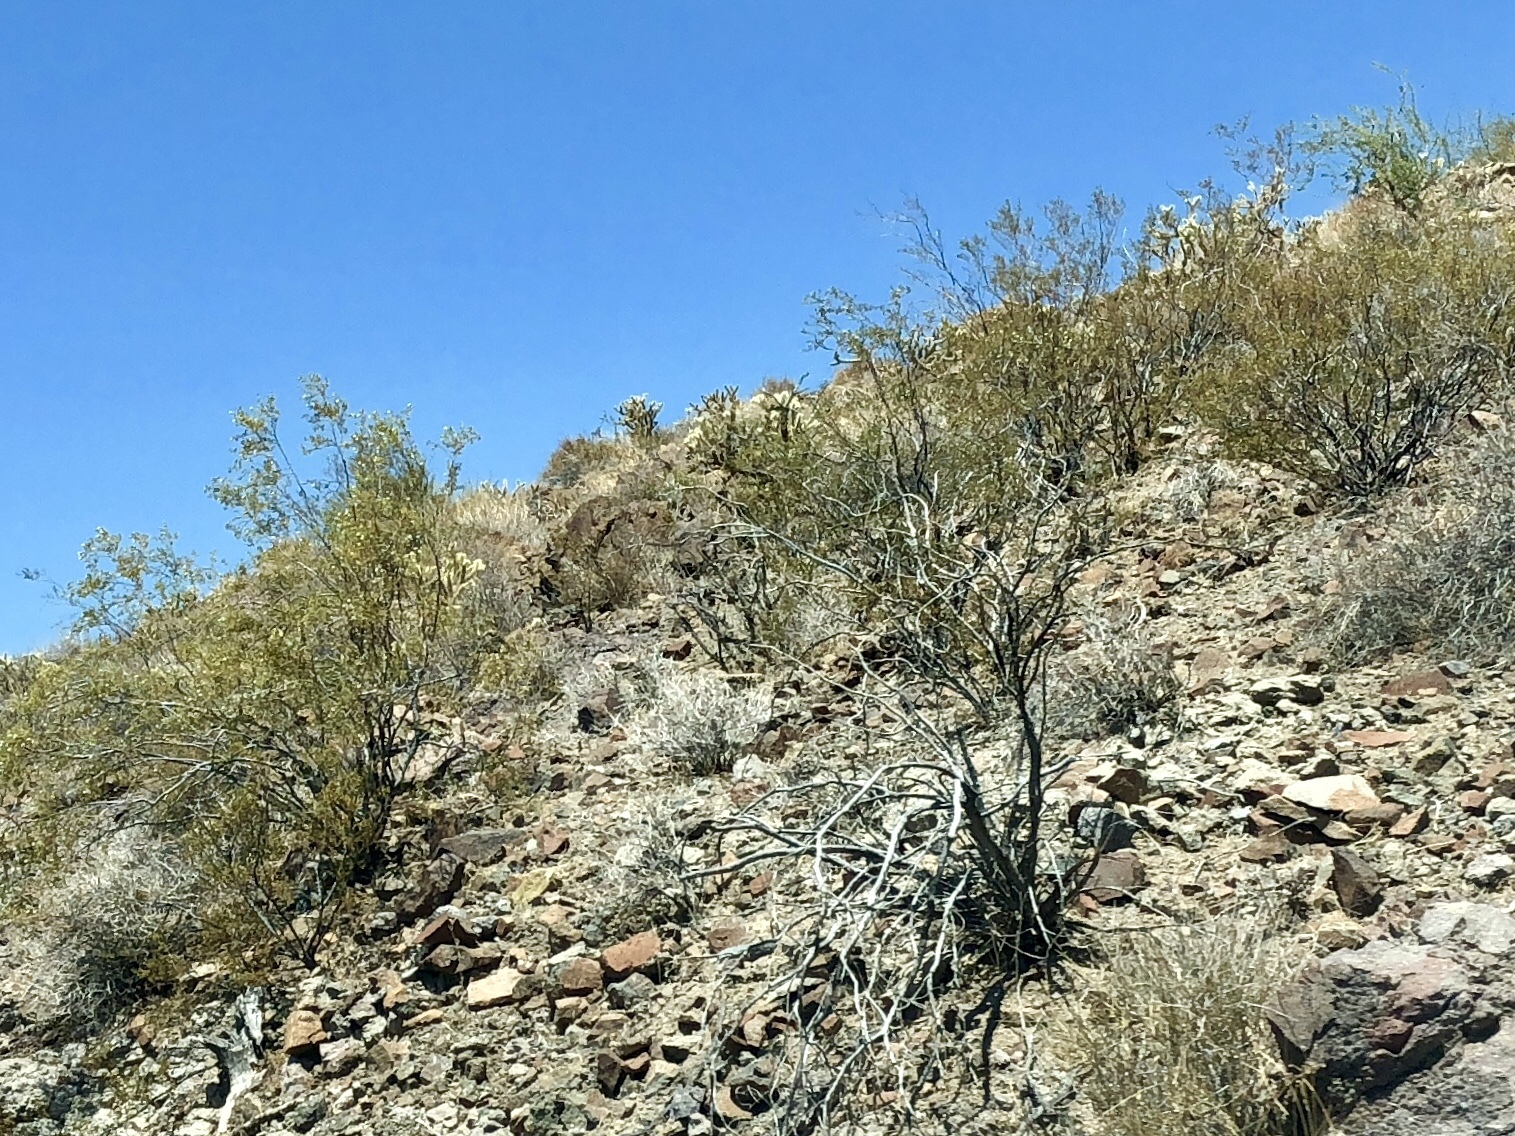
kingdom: Plantae
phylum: Tracheophyta
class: Magnoliopsida
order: Zygophyllales
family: Zygophyllaceae
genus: Larrea
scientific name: Larrea tridentata
